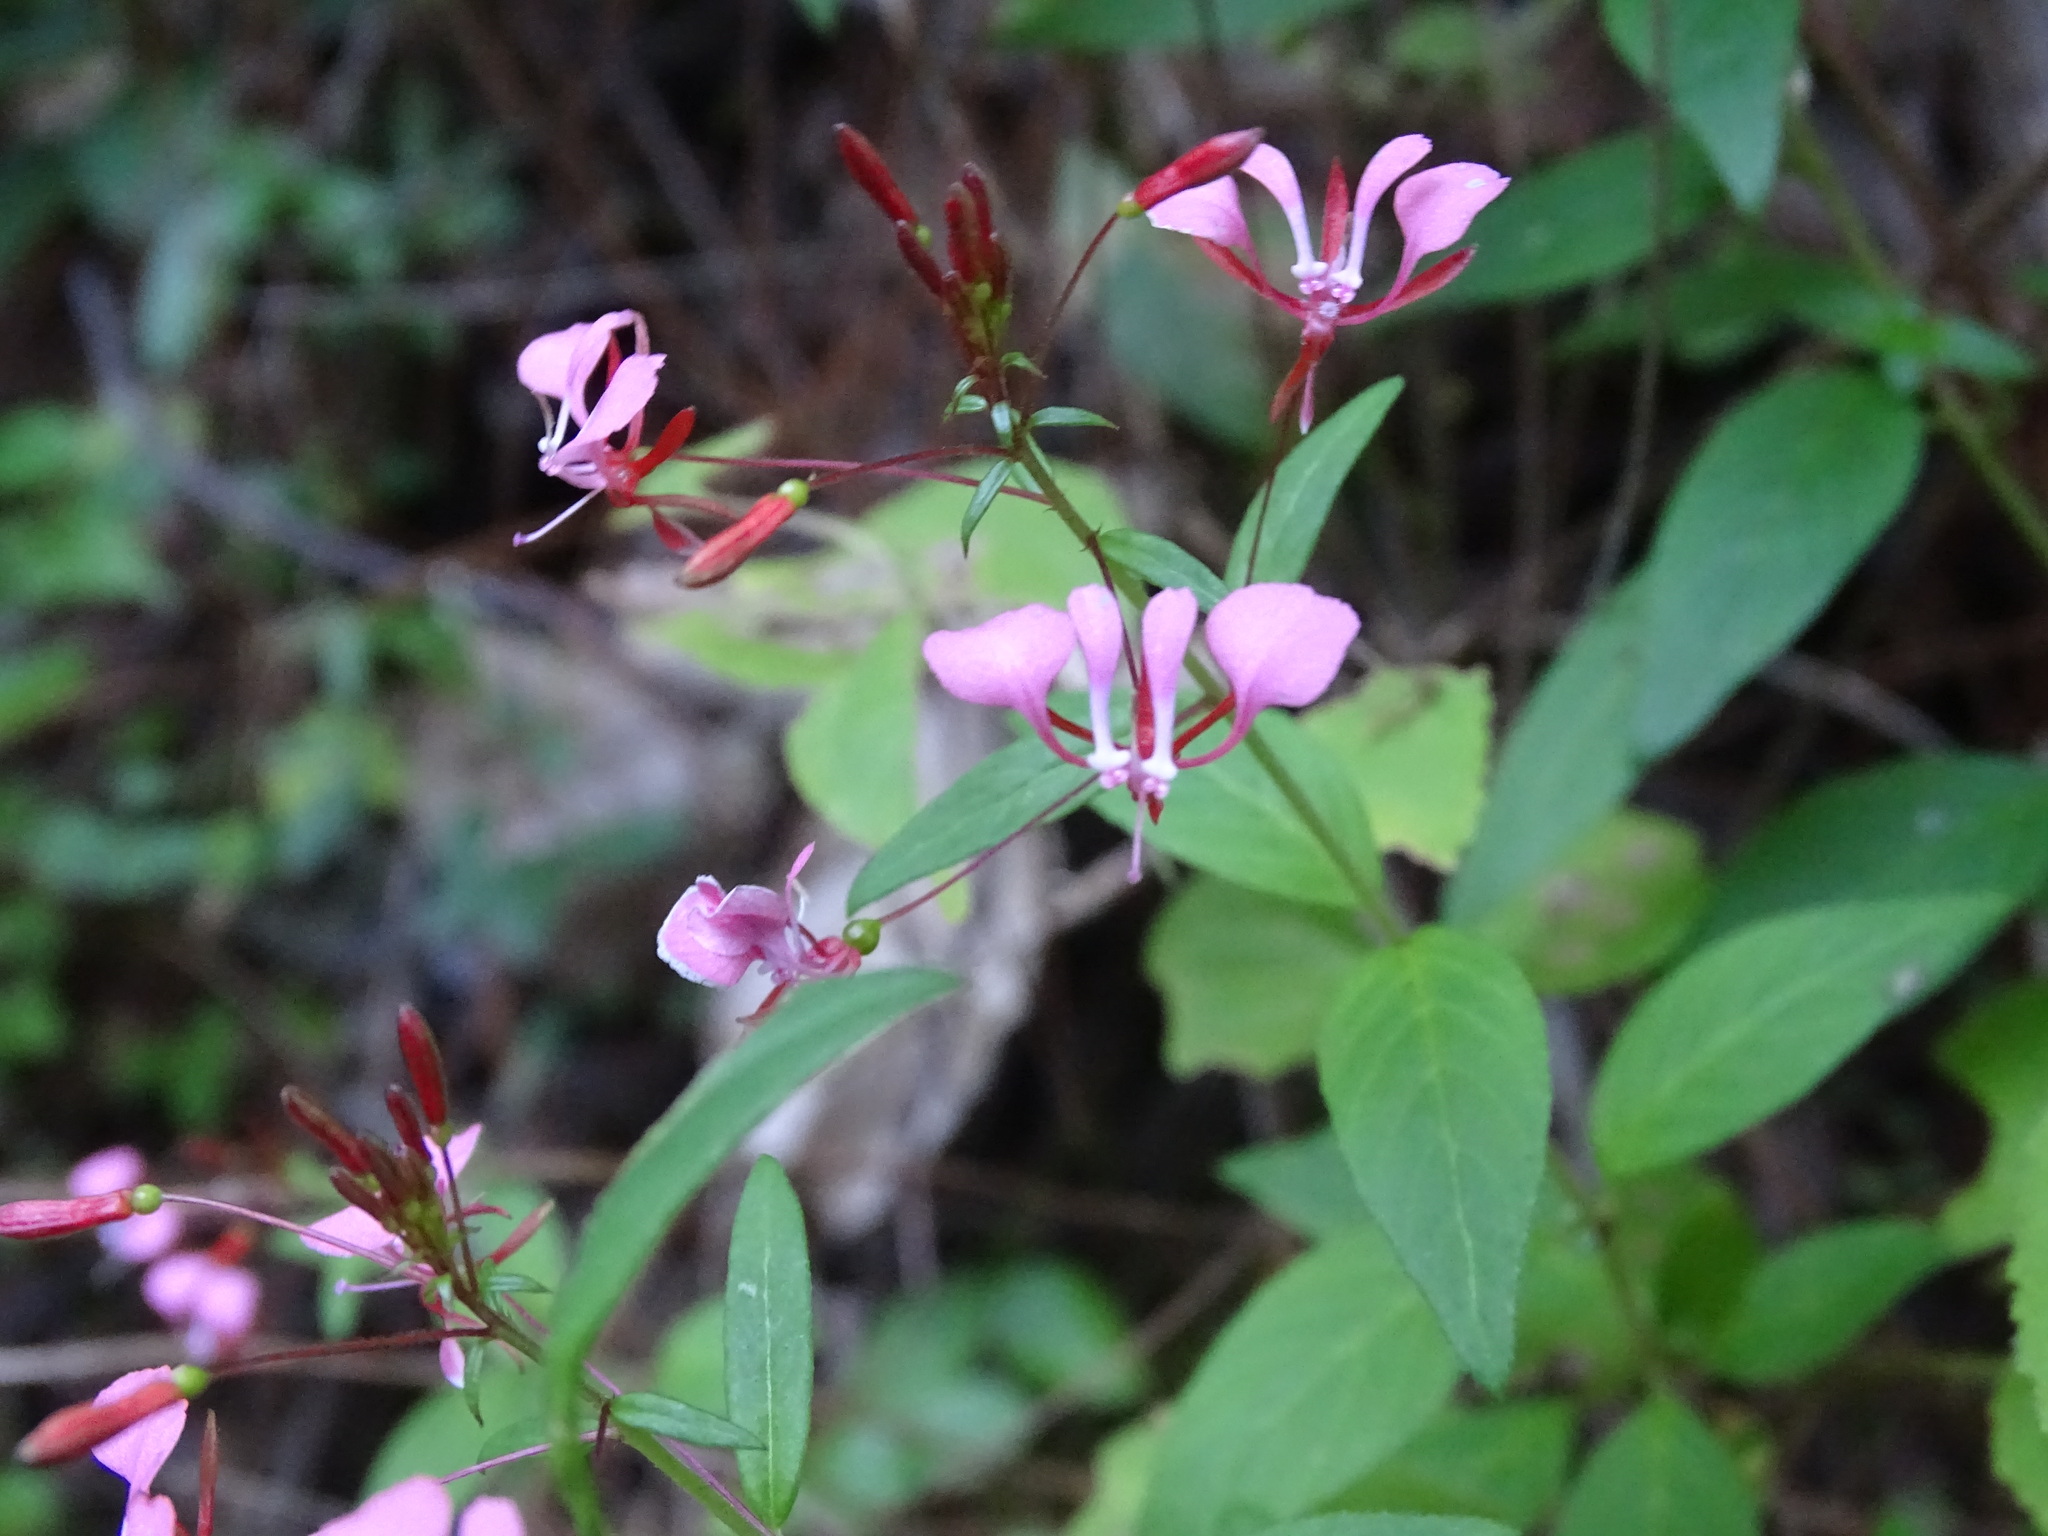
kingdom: Plantae
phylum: Tracheophyta
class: Magnoliopsida
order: Myrtales
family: Onagraceae
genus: Lopezia
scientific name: Lopezia racemosa
